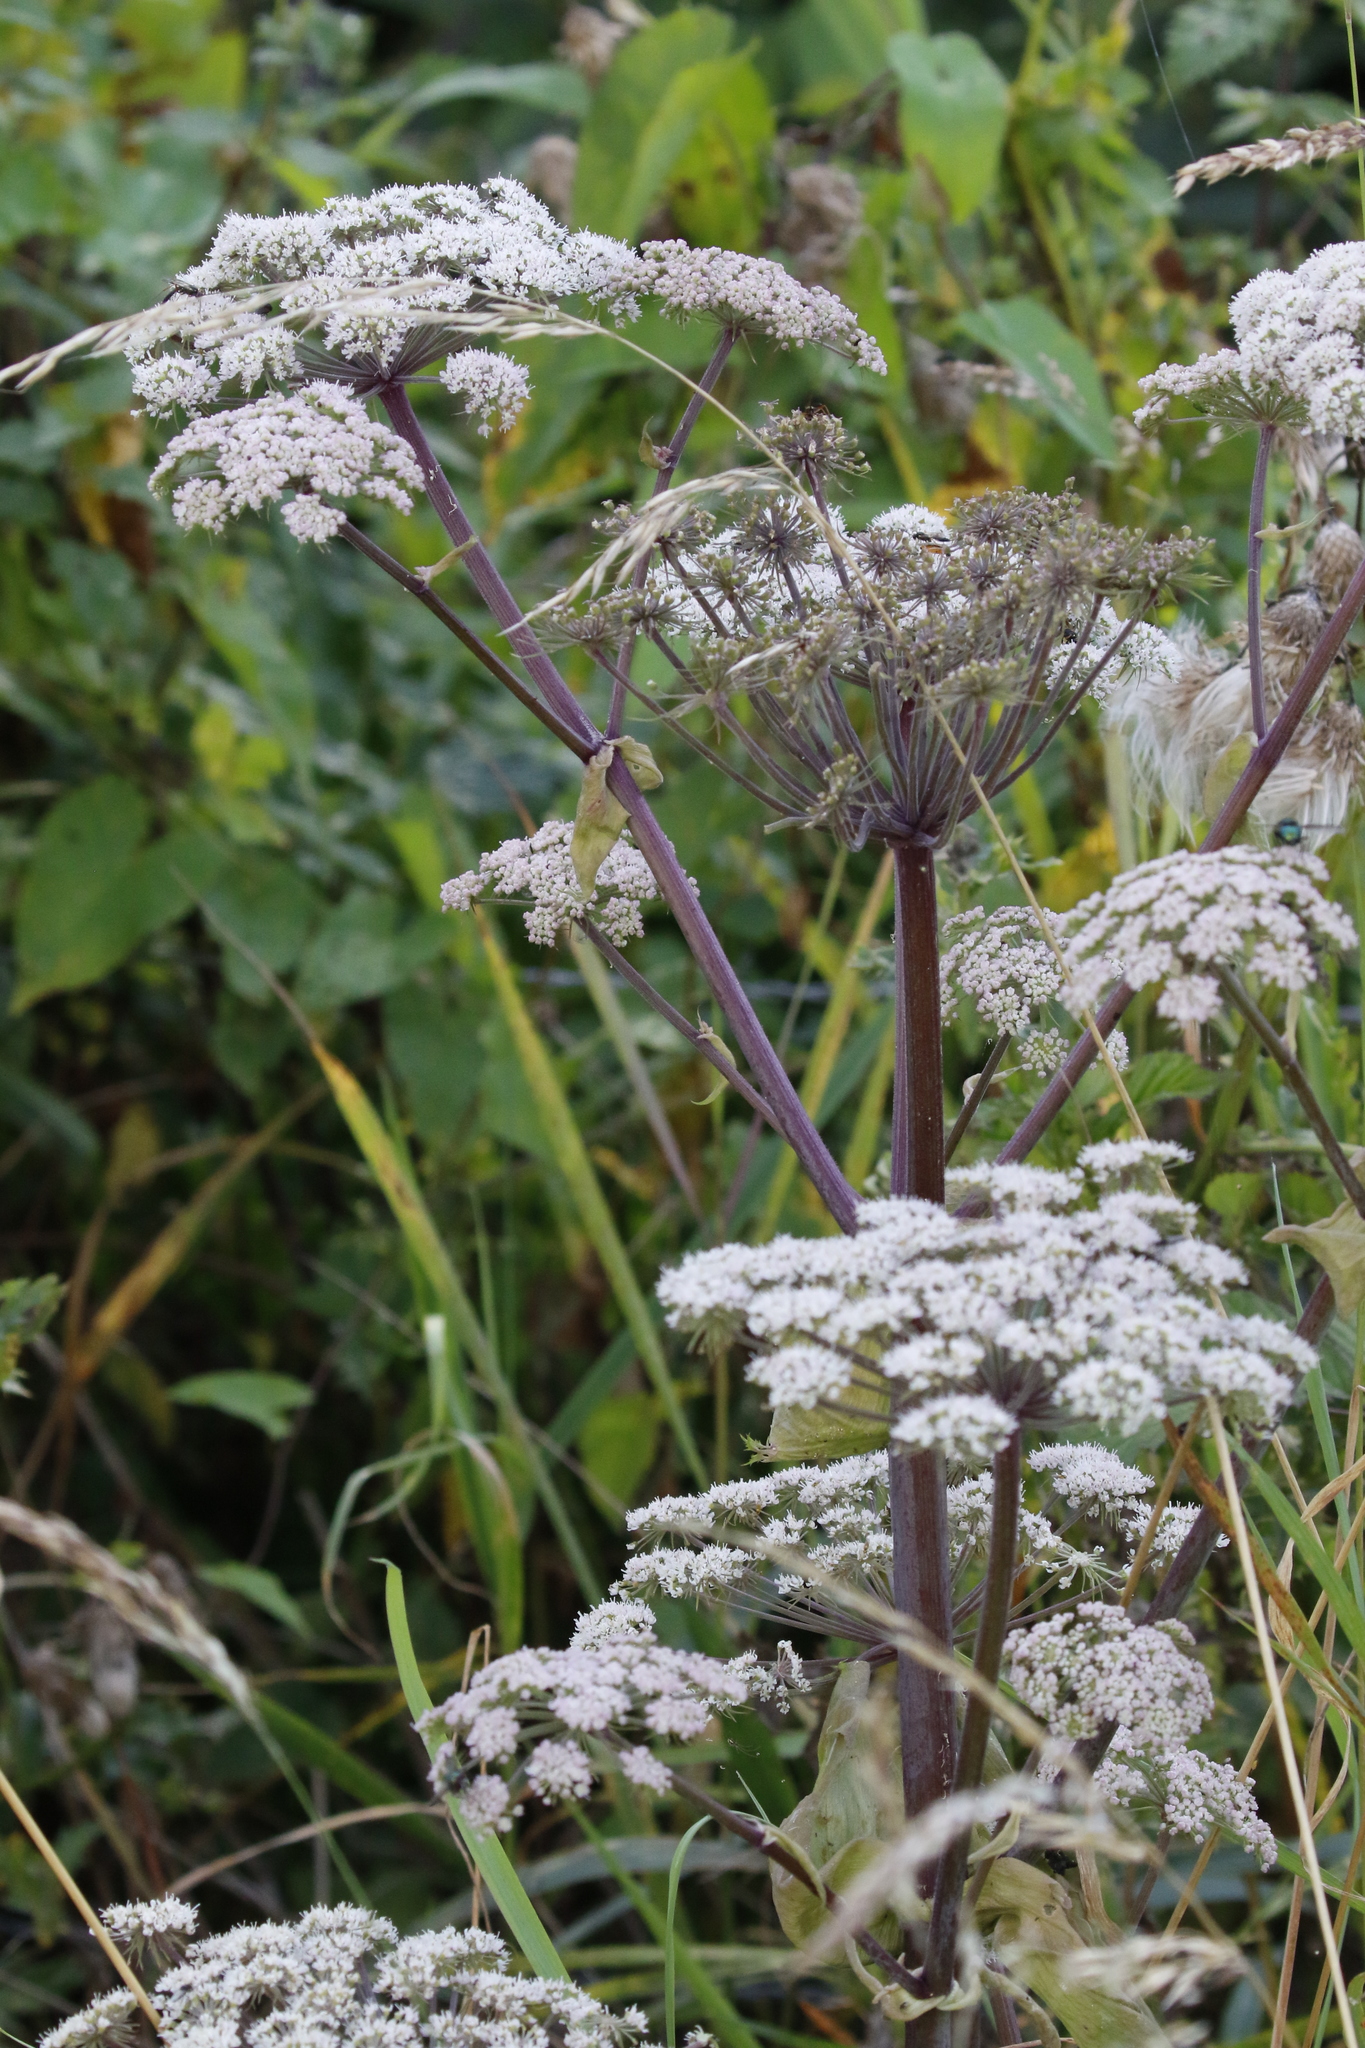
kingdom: Plantae
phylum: Tracheophyta
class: Magnoliopsida
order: Apiales
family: Apiaceae
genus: Angelica
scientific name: Angelica sylvestris
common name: Wild angelica
